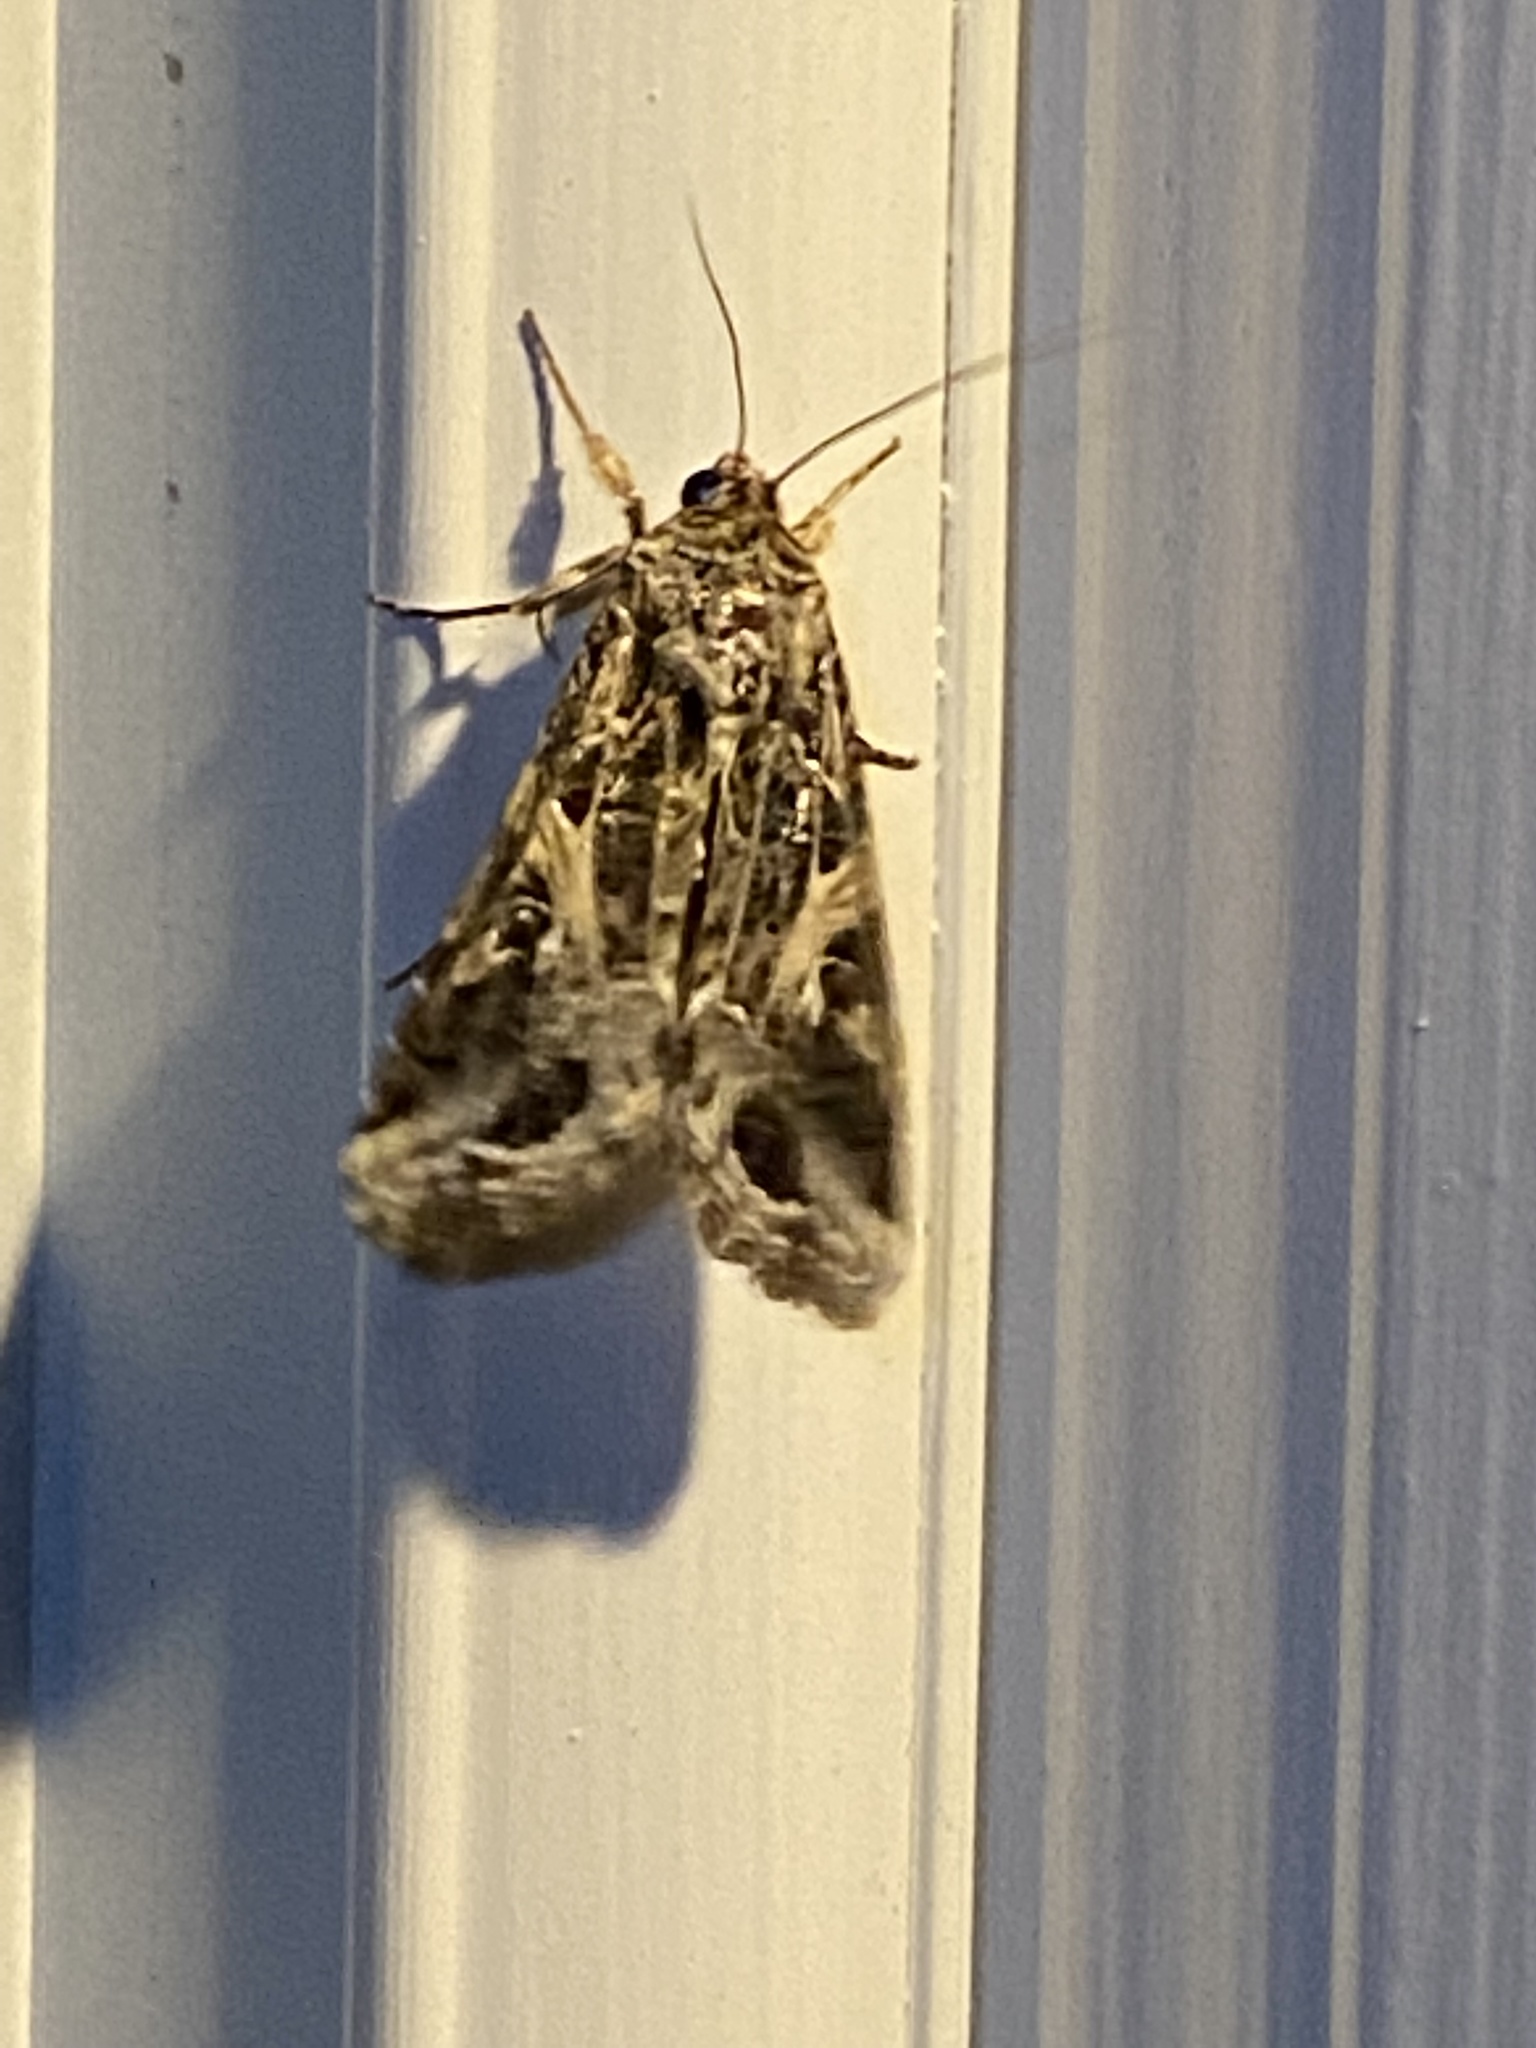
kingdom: Animalia
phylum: Arthropoda
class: Insecta
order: Lepidoptera
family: Noctuidae
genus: Spodoptera
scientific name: Spodoptera ornithogalli
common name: Yellow-striped armyworm
